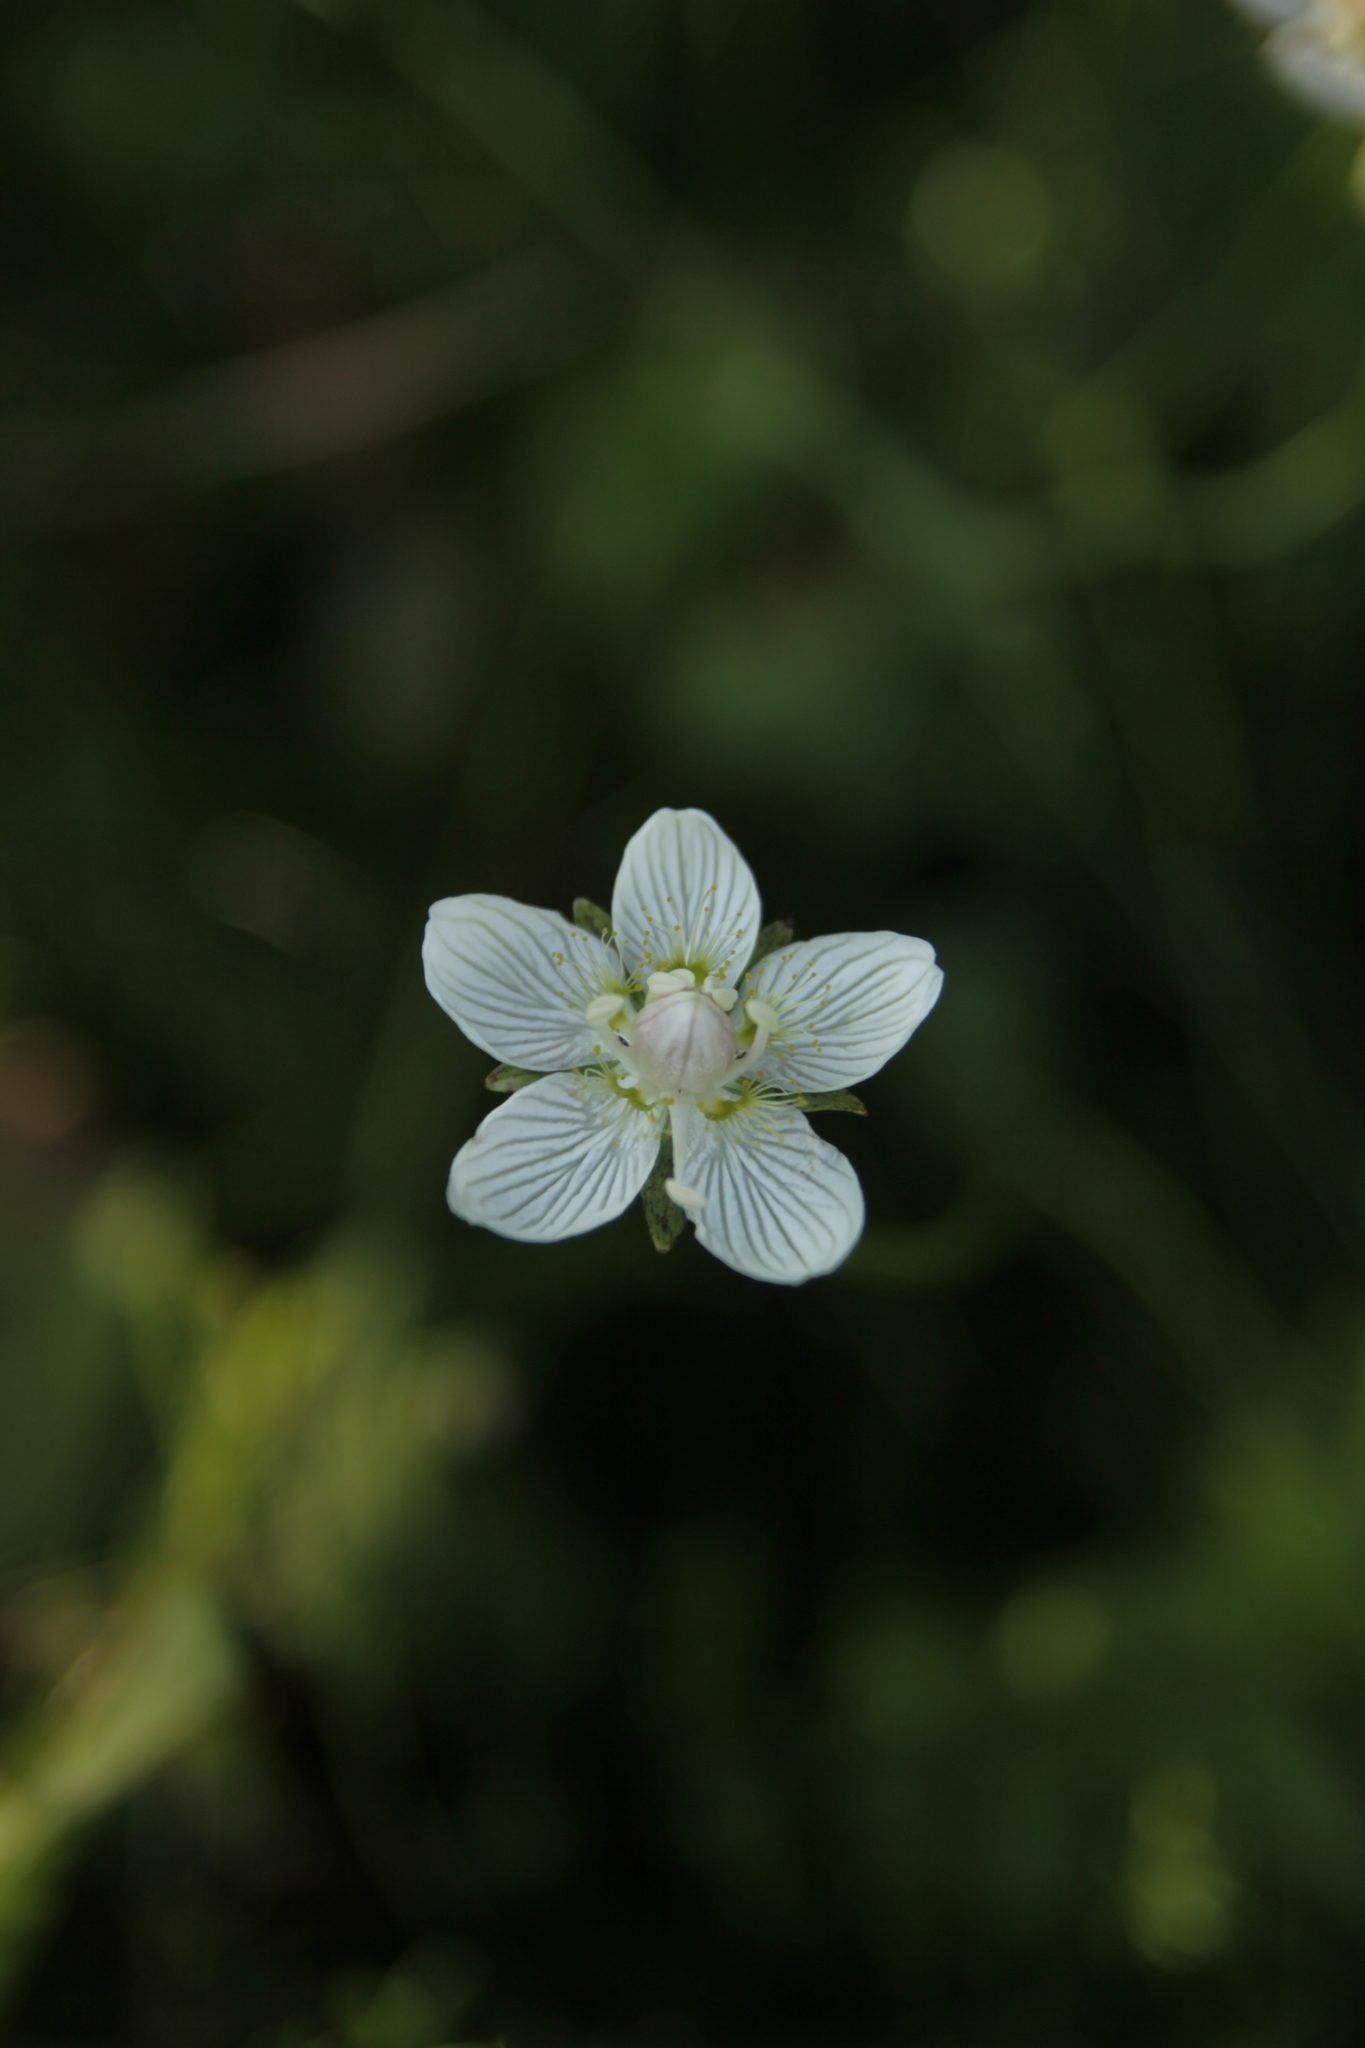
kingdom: Plantae
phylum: Tracheophyta
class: Magnoliopsida
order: Celastrales
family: Parnassiaceae
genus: Parnassia
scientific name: Parnassia palustris
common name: Grass-of-parnassus
